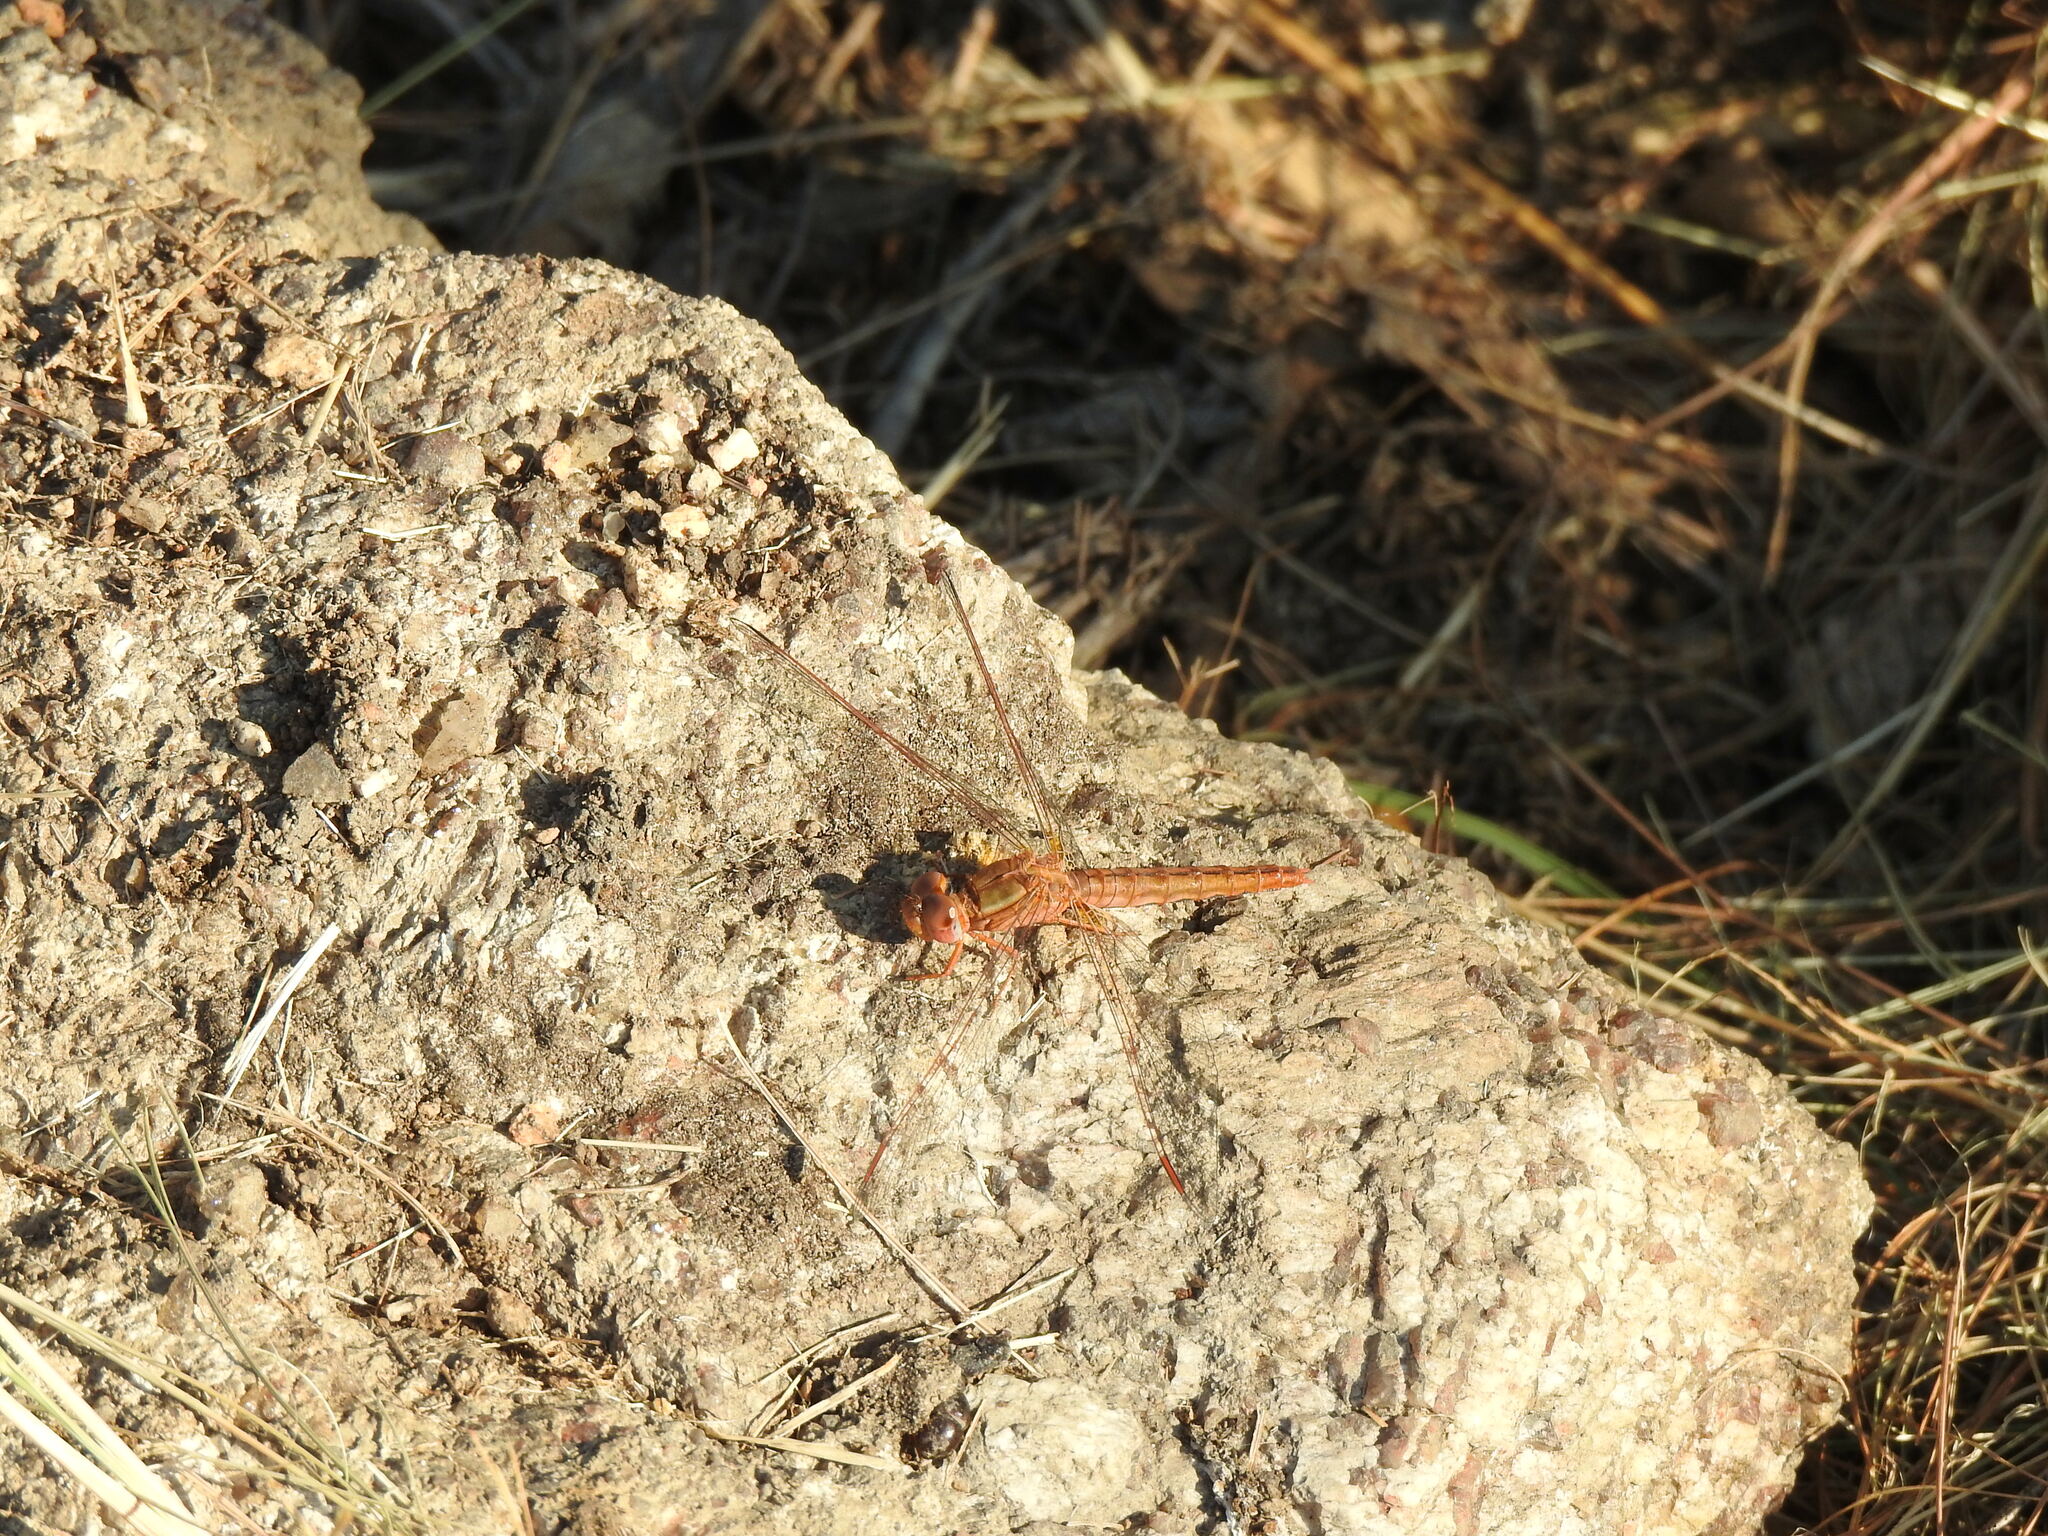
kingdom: Animalia
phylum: Arthropoda
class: Insecta
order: Odonata
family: Libellulidae
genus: Crocothemis
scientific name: Crocothemis sanguinolenta
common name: Little scarlet
